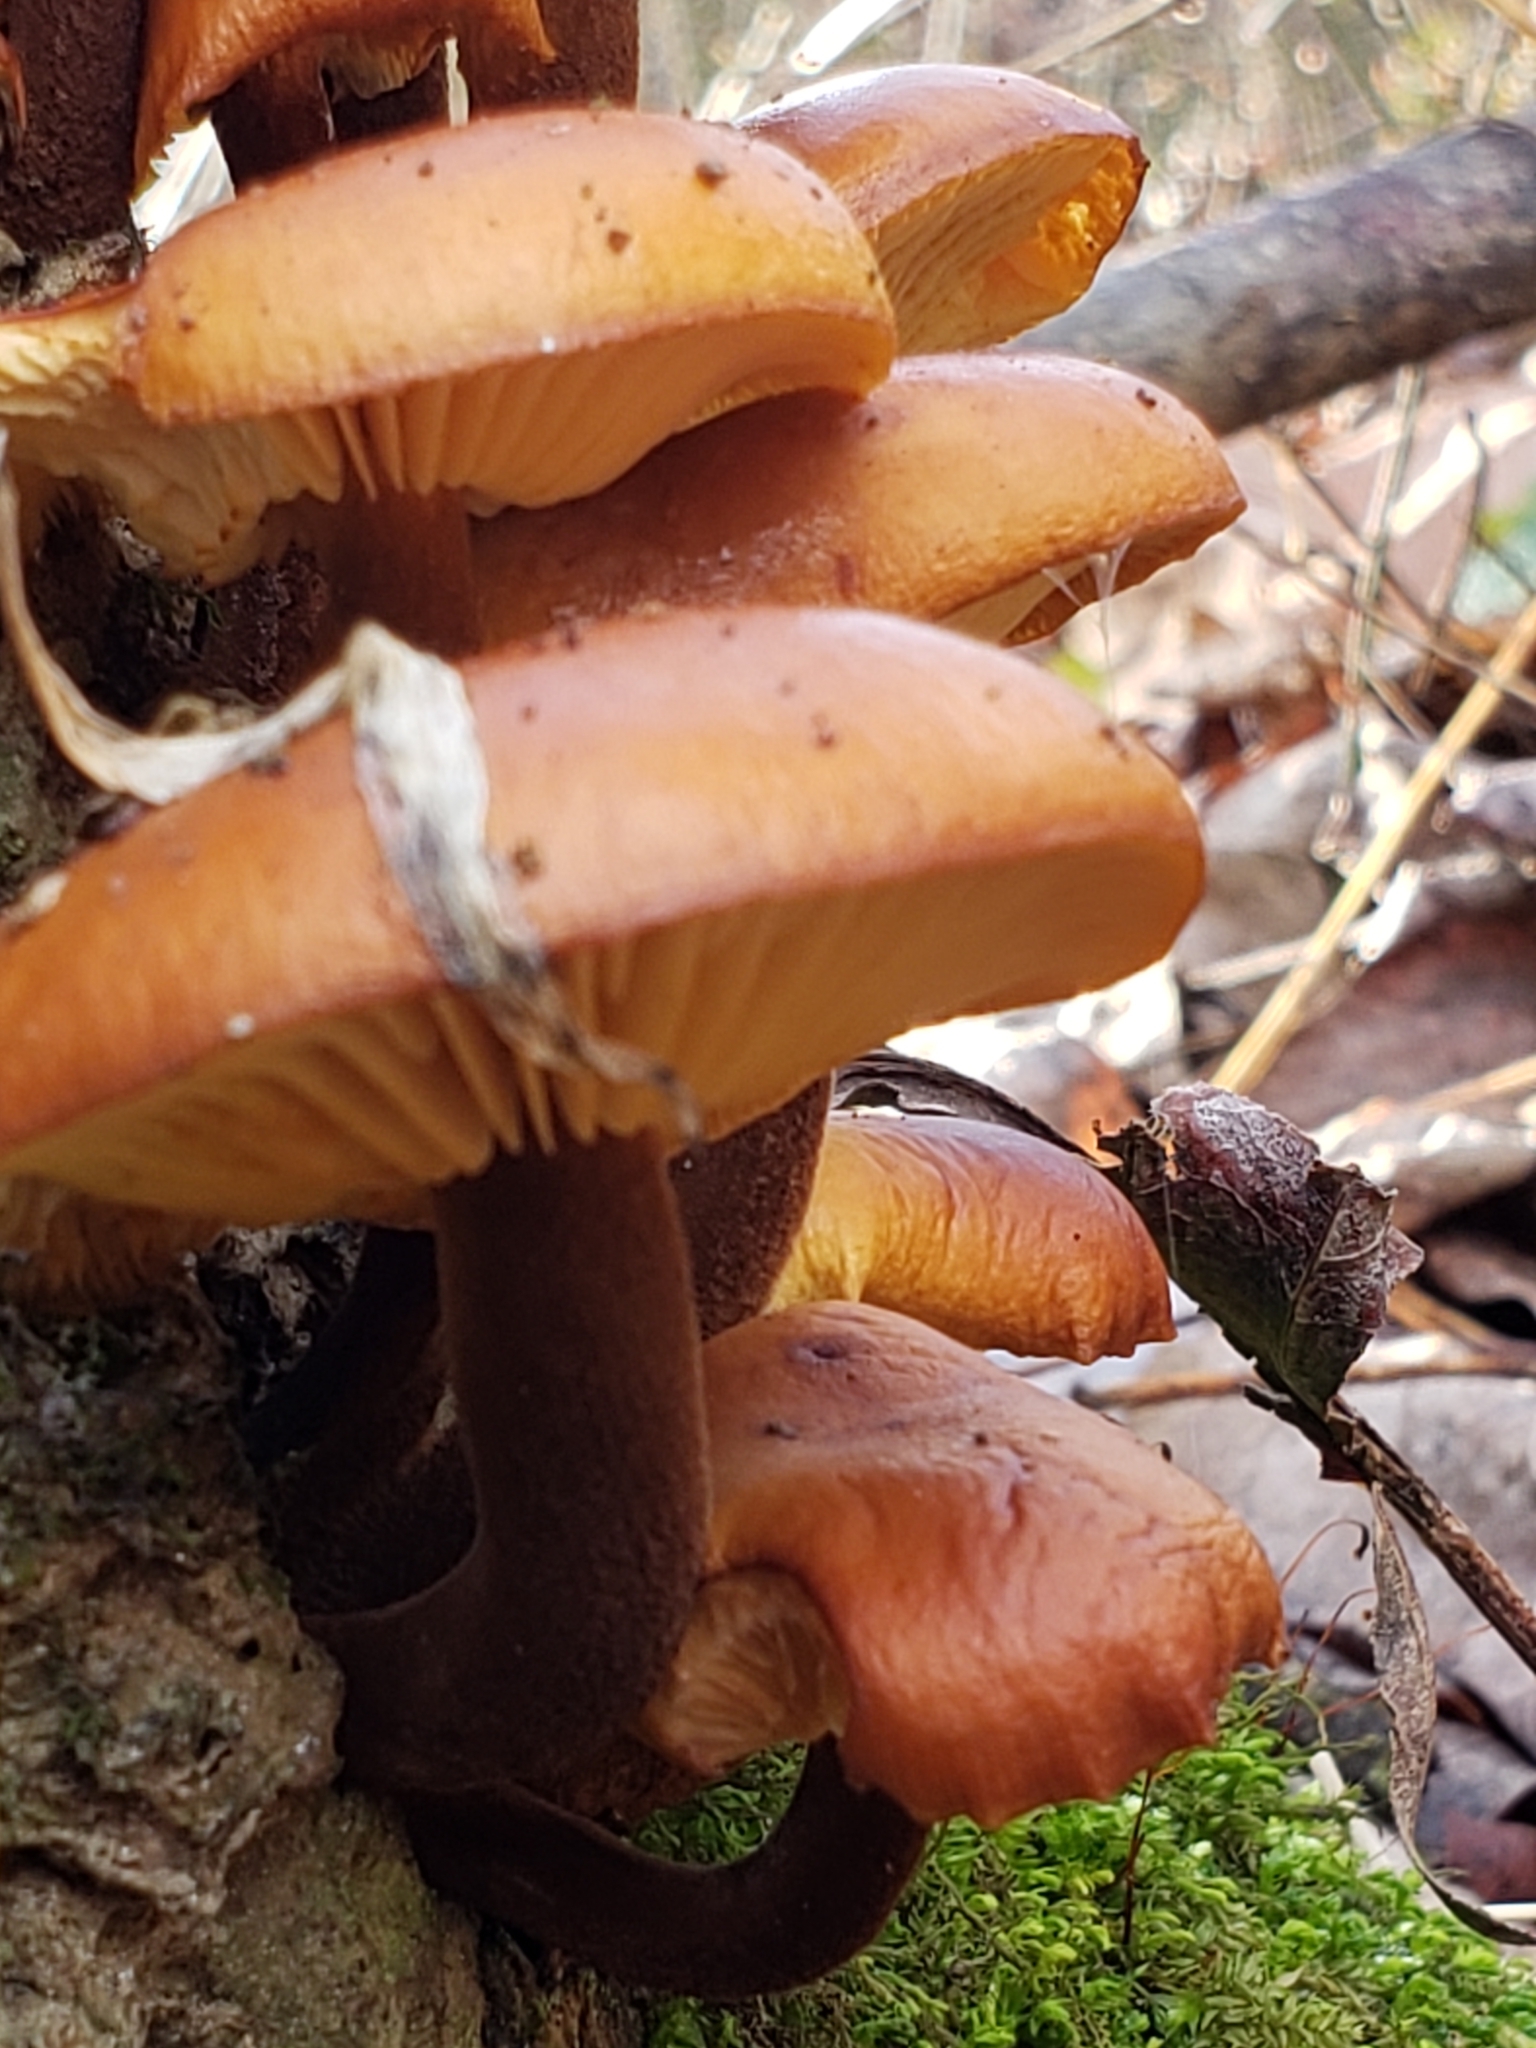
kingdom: Fungi
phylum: Basidiomycota
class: Agaricomycetes
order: Agaricales
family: Physalacriaceae
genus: Flammulina
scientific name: Flammulina velutipes
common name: Velvet shank
